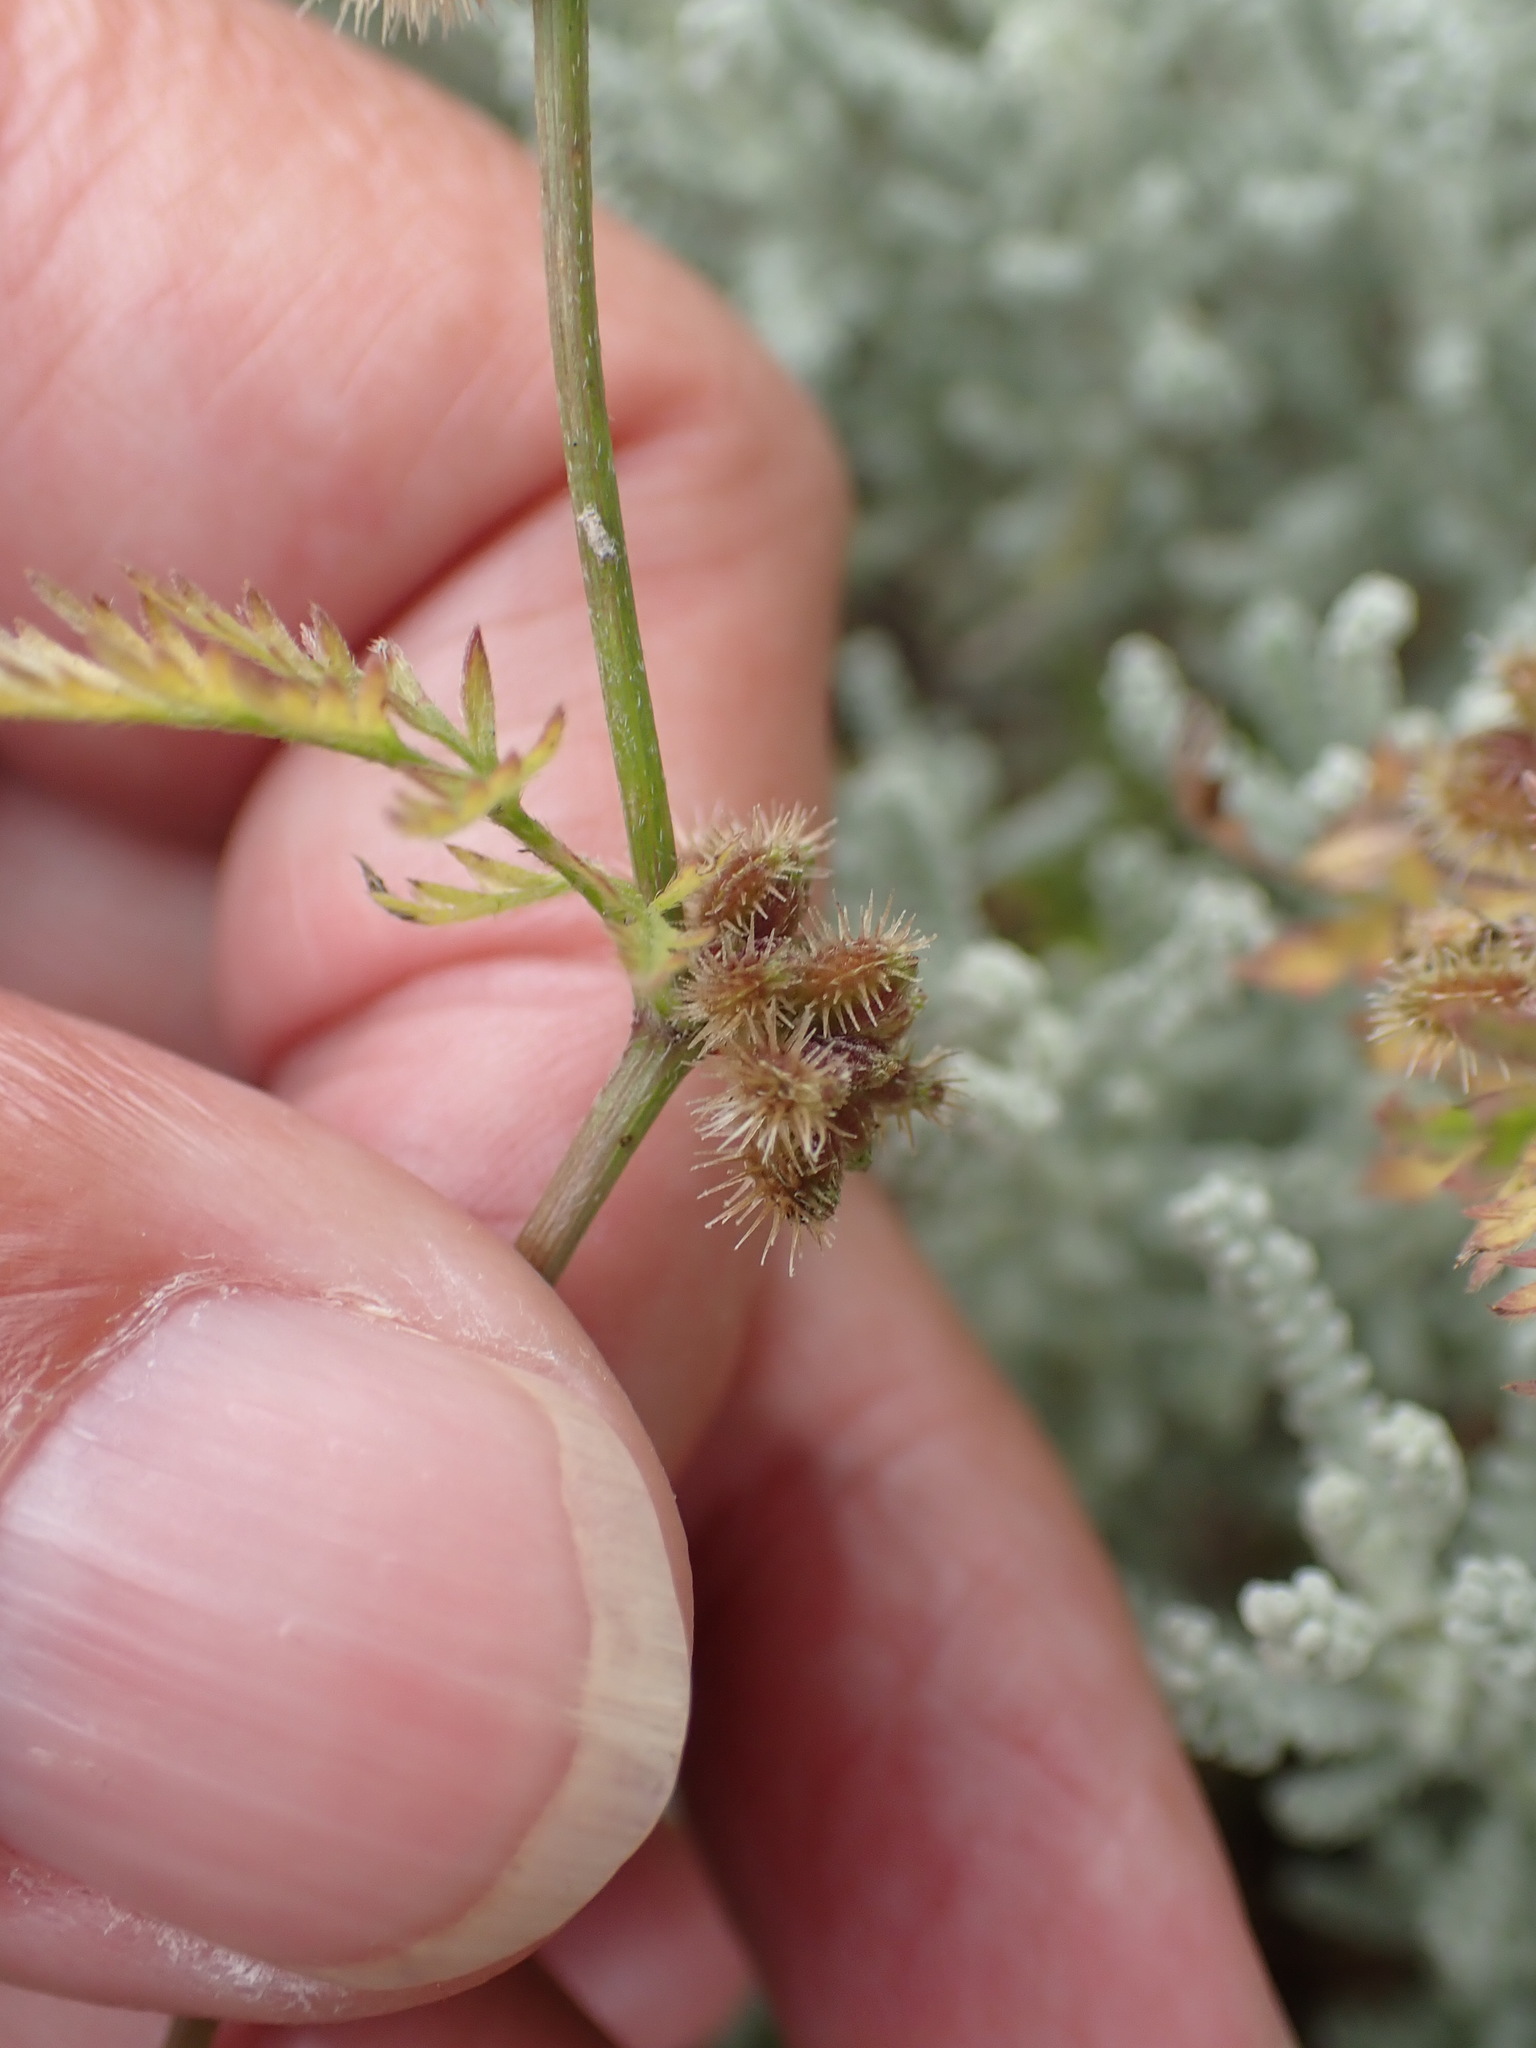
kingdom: Plantae
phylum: Tracheophyta
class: Magnoliopsida
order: Apiales
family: Apiaceae
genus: Torilis
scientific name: Torilis nodosa
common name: Knotted hedge-parsley
